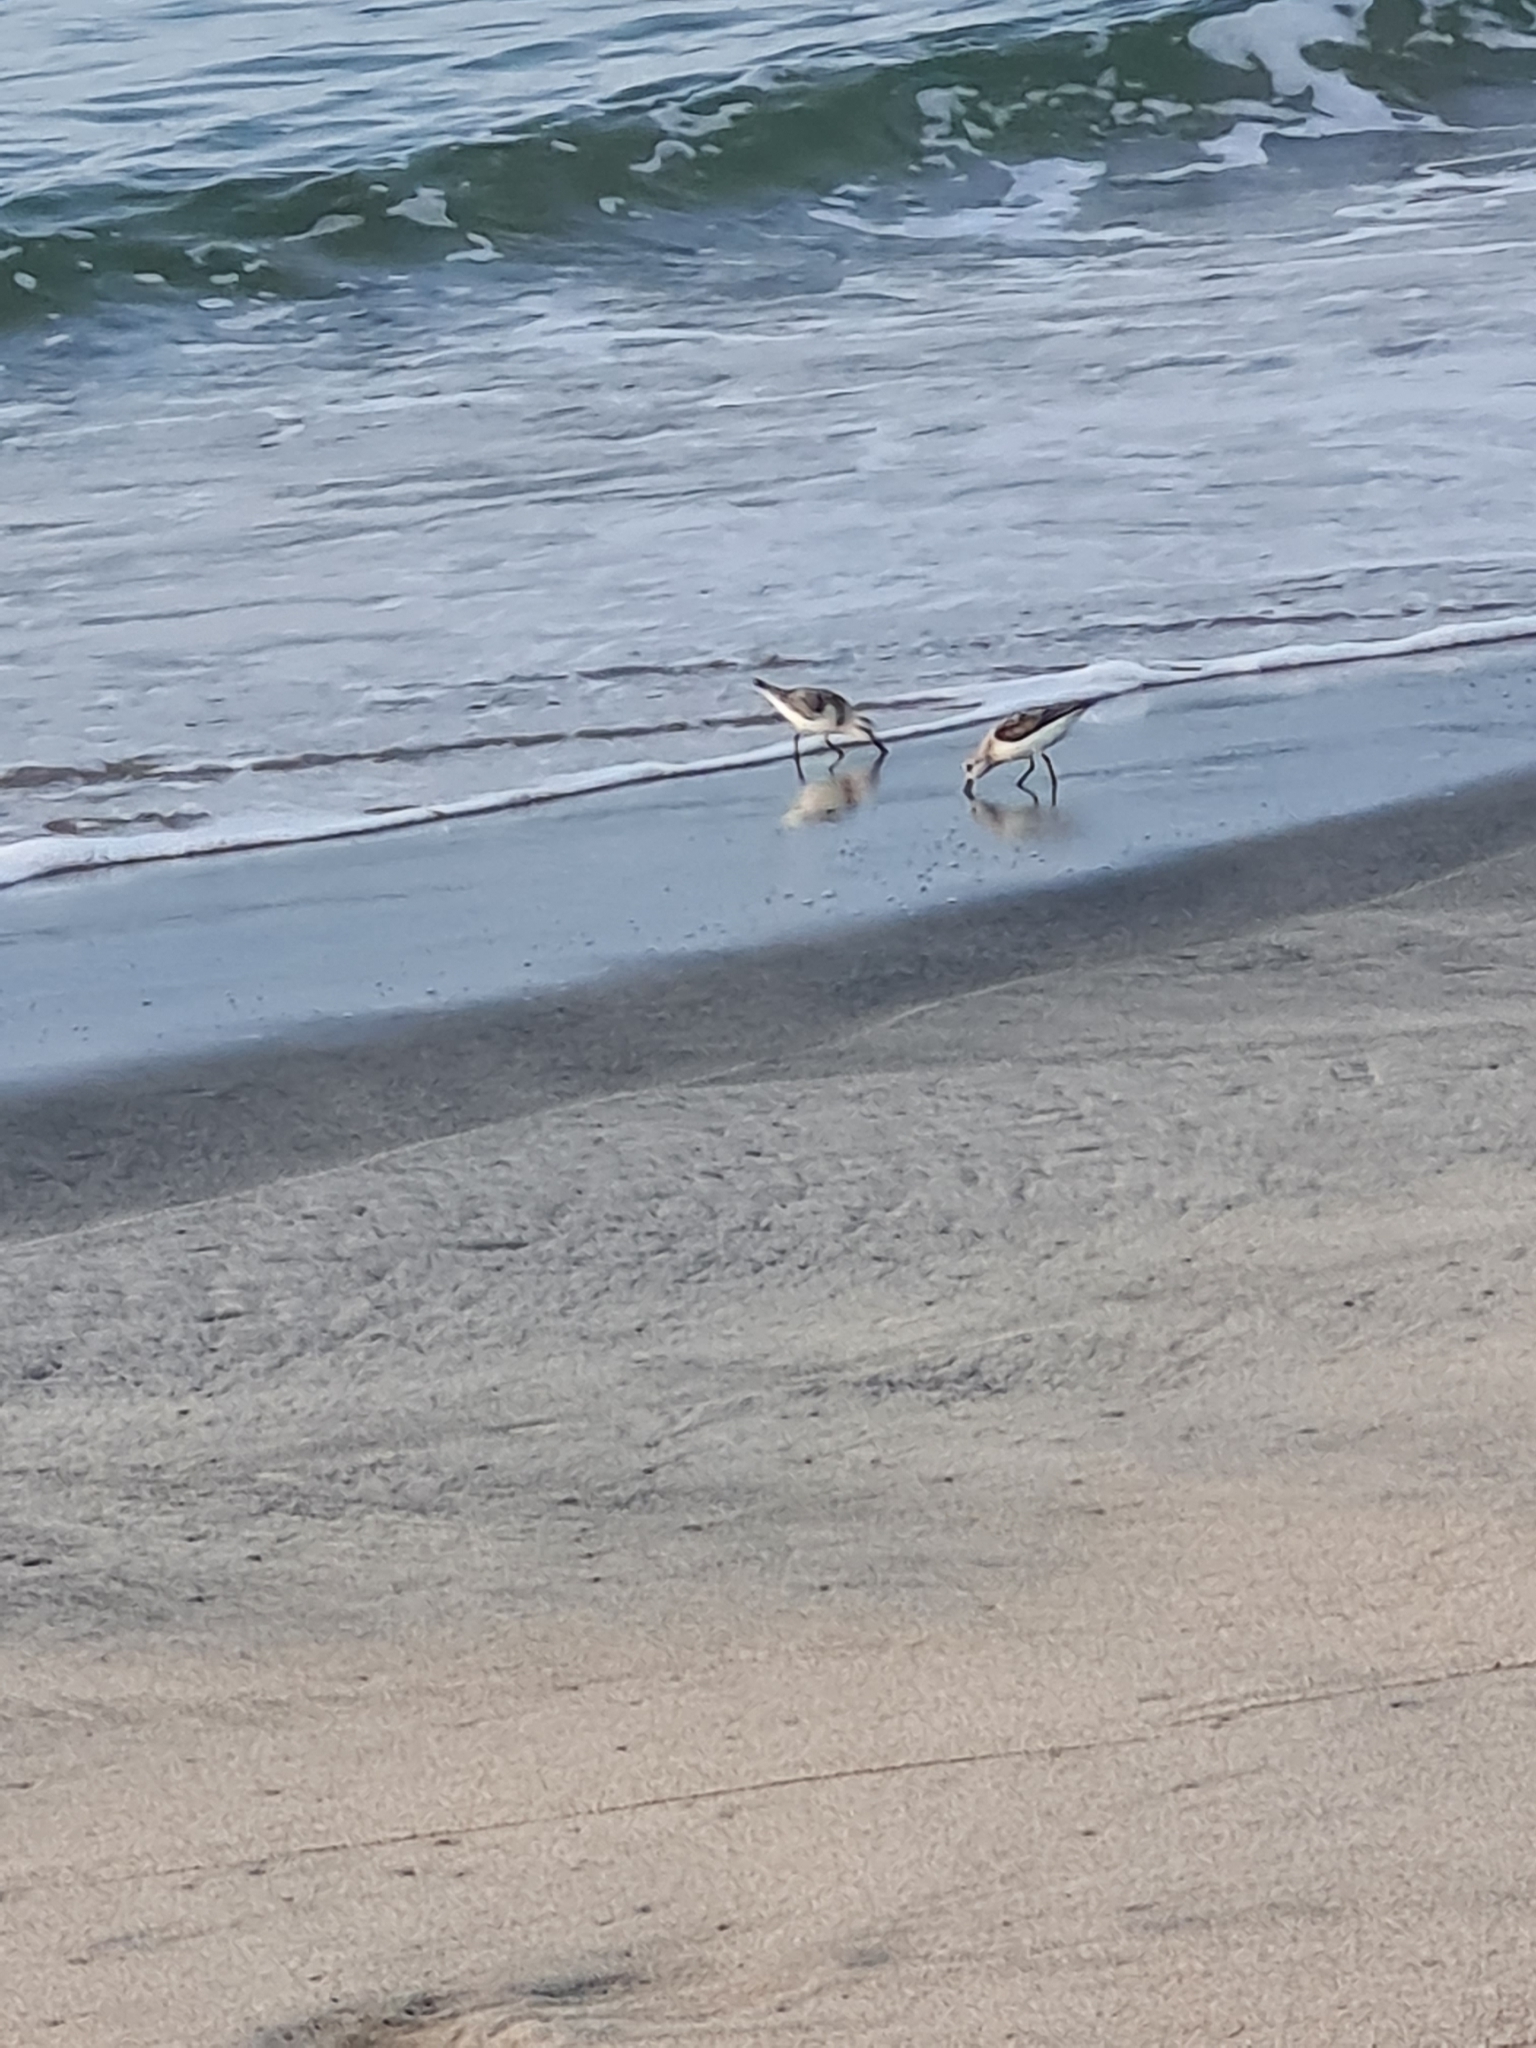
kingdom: Animalia
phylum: Chordata
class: Aves
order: Charadriiformes
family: Scolopacidae
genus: Calidris
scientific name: Calidris alba
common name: Sanderling
